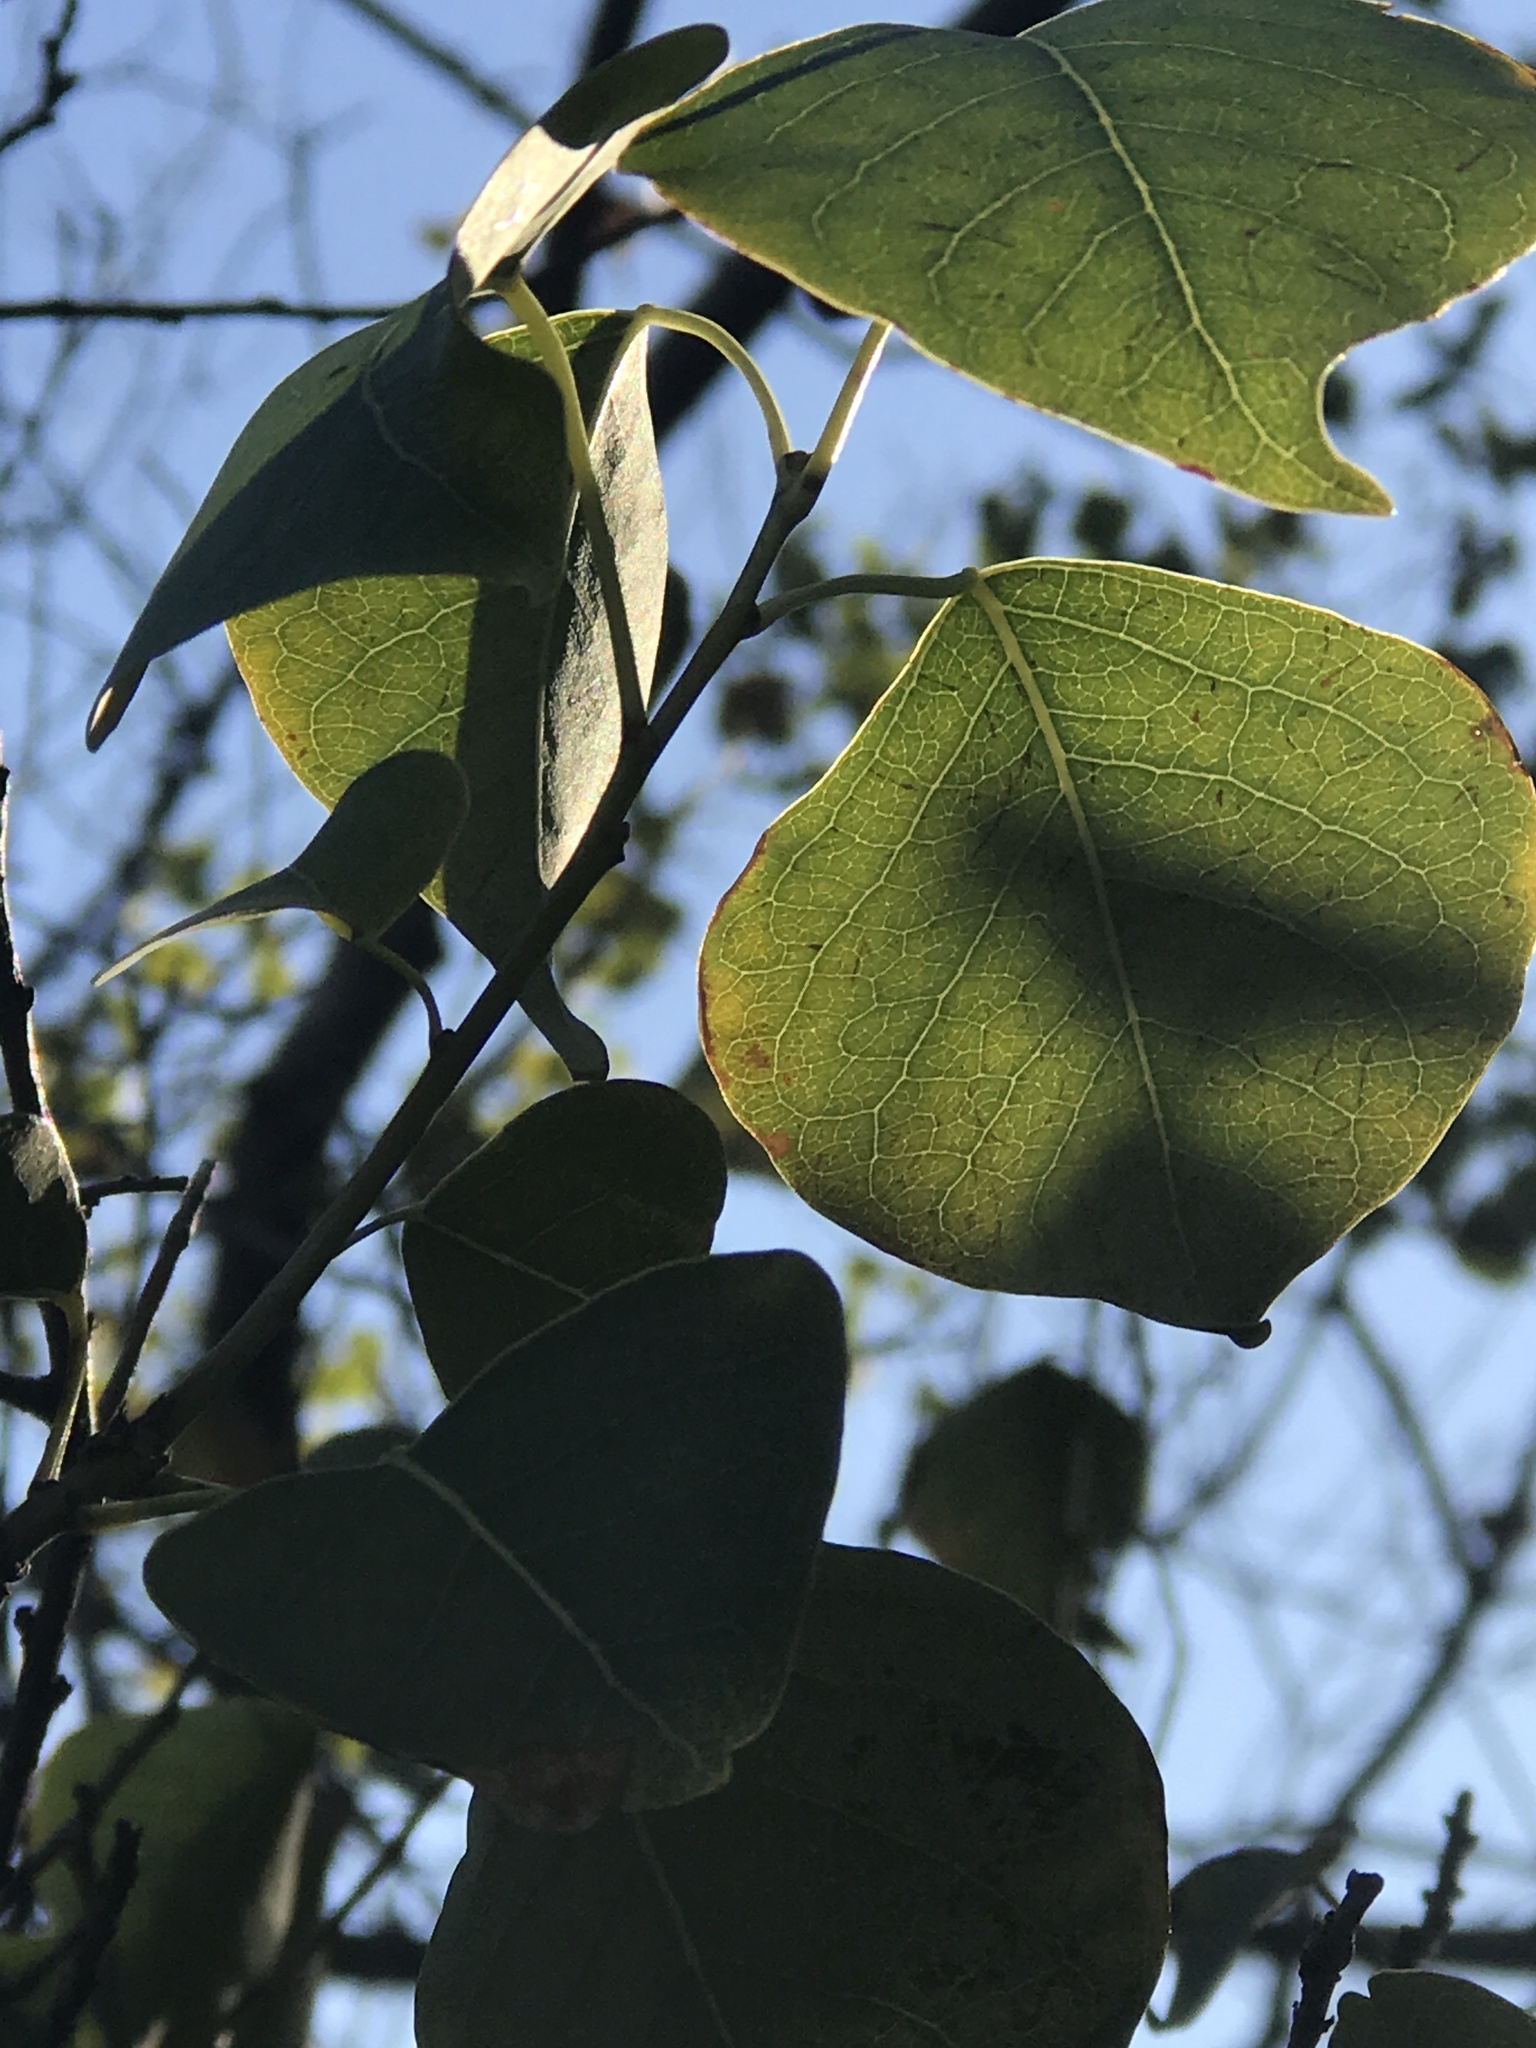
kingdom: Plantae
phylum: Tracheophyta
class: Magnoliopsida
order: Malpighiales
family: Euphorbiaceae
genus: Triadica
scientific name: Triadica sebifera
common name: Chinese tallow
